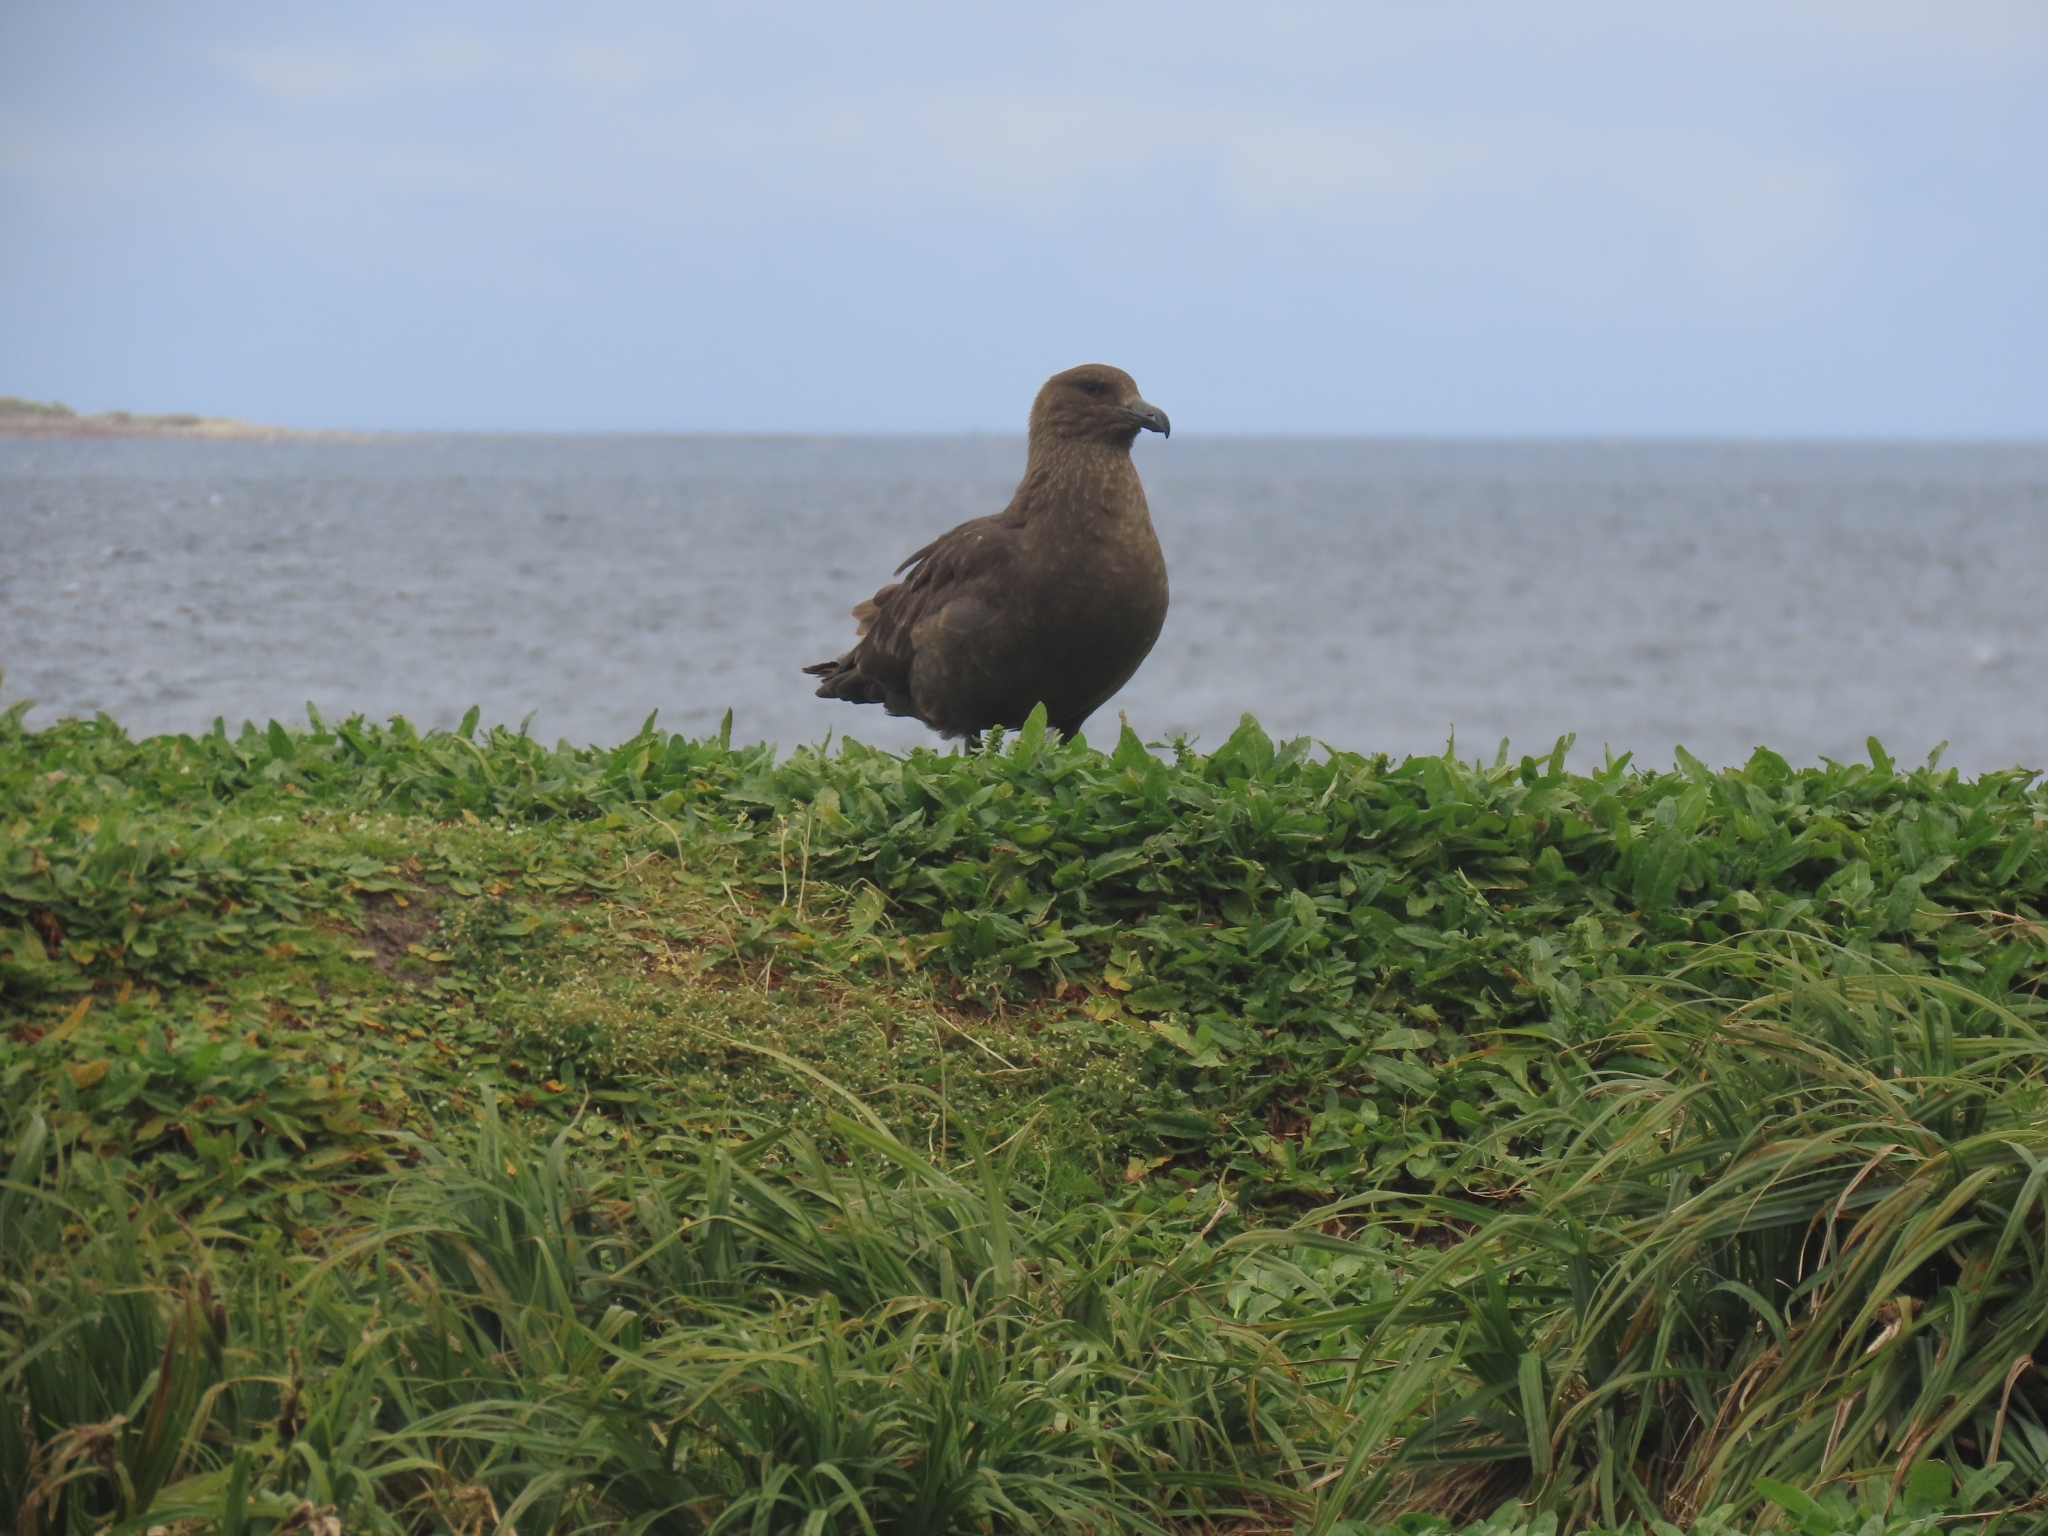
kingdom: Animalia
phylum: Chordata
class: Aves
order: Charadriiformes
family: Stercorariidae
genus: Stercorarius
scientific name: Stercorarius antarcticus
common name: Brown skua
